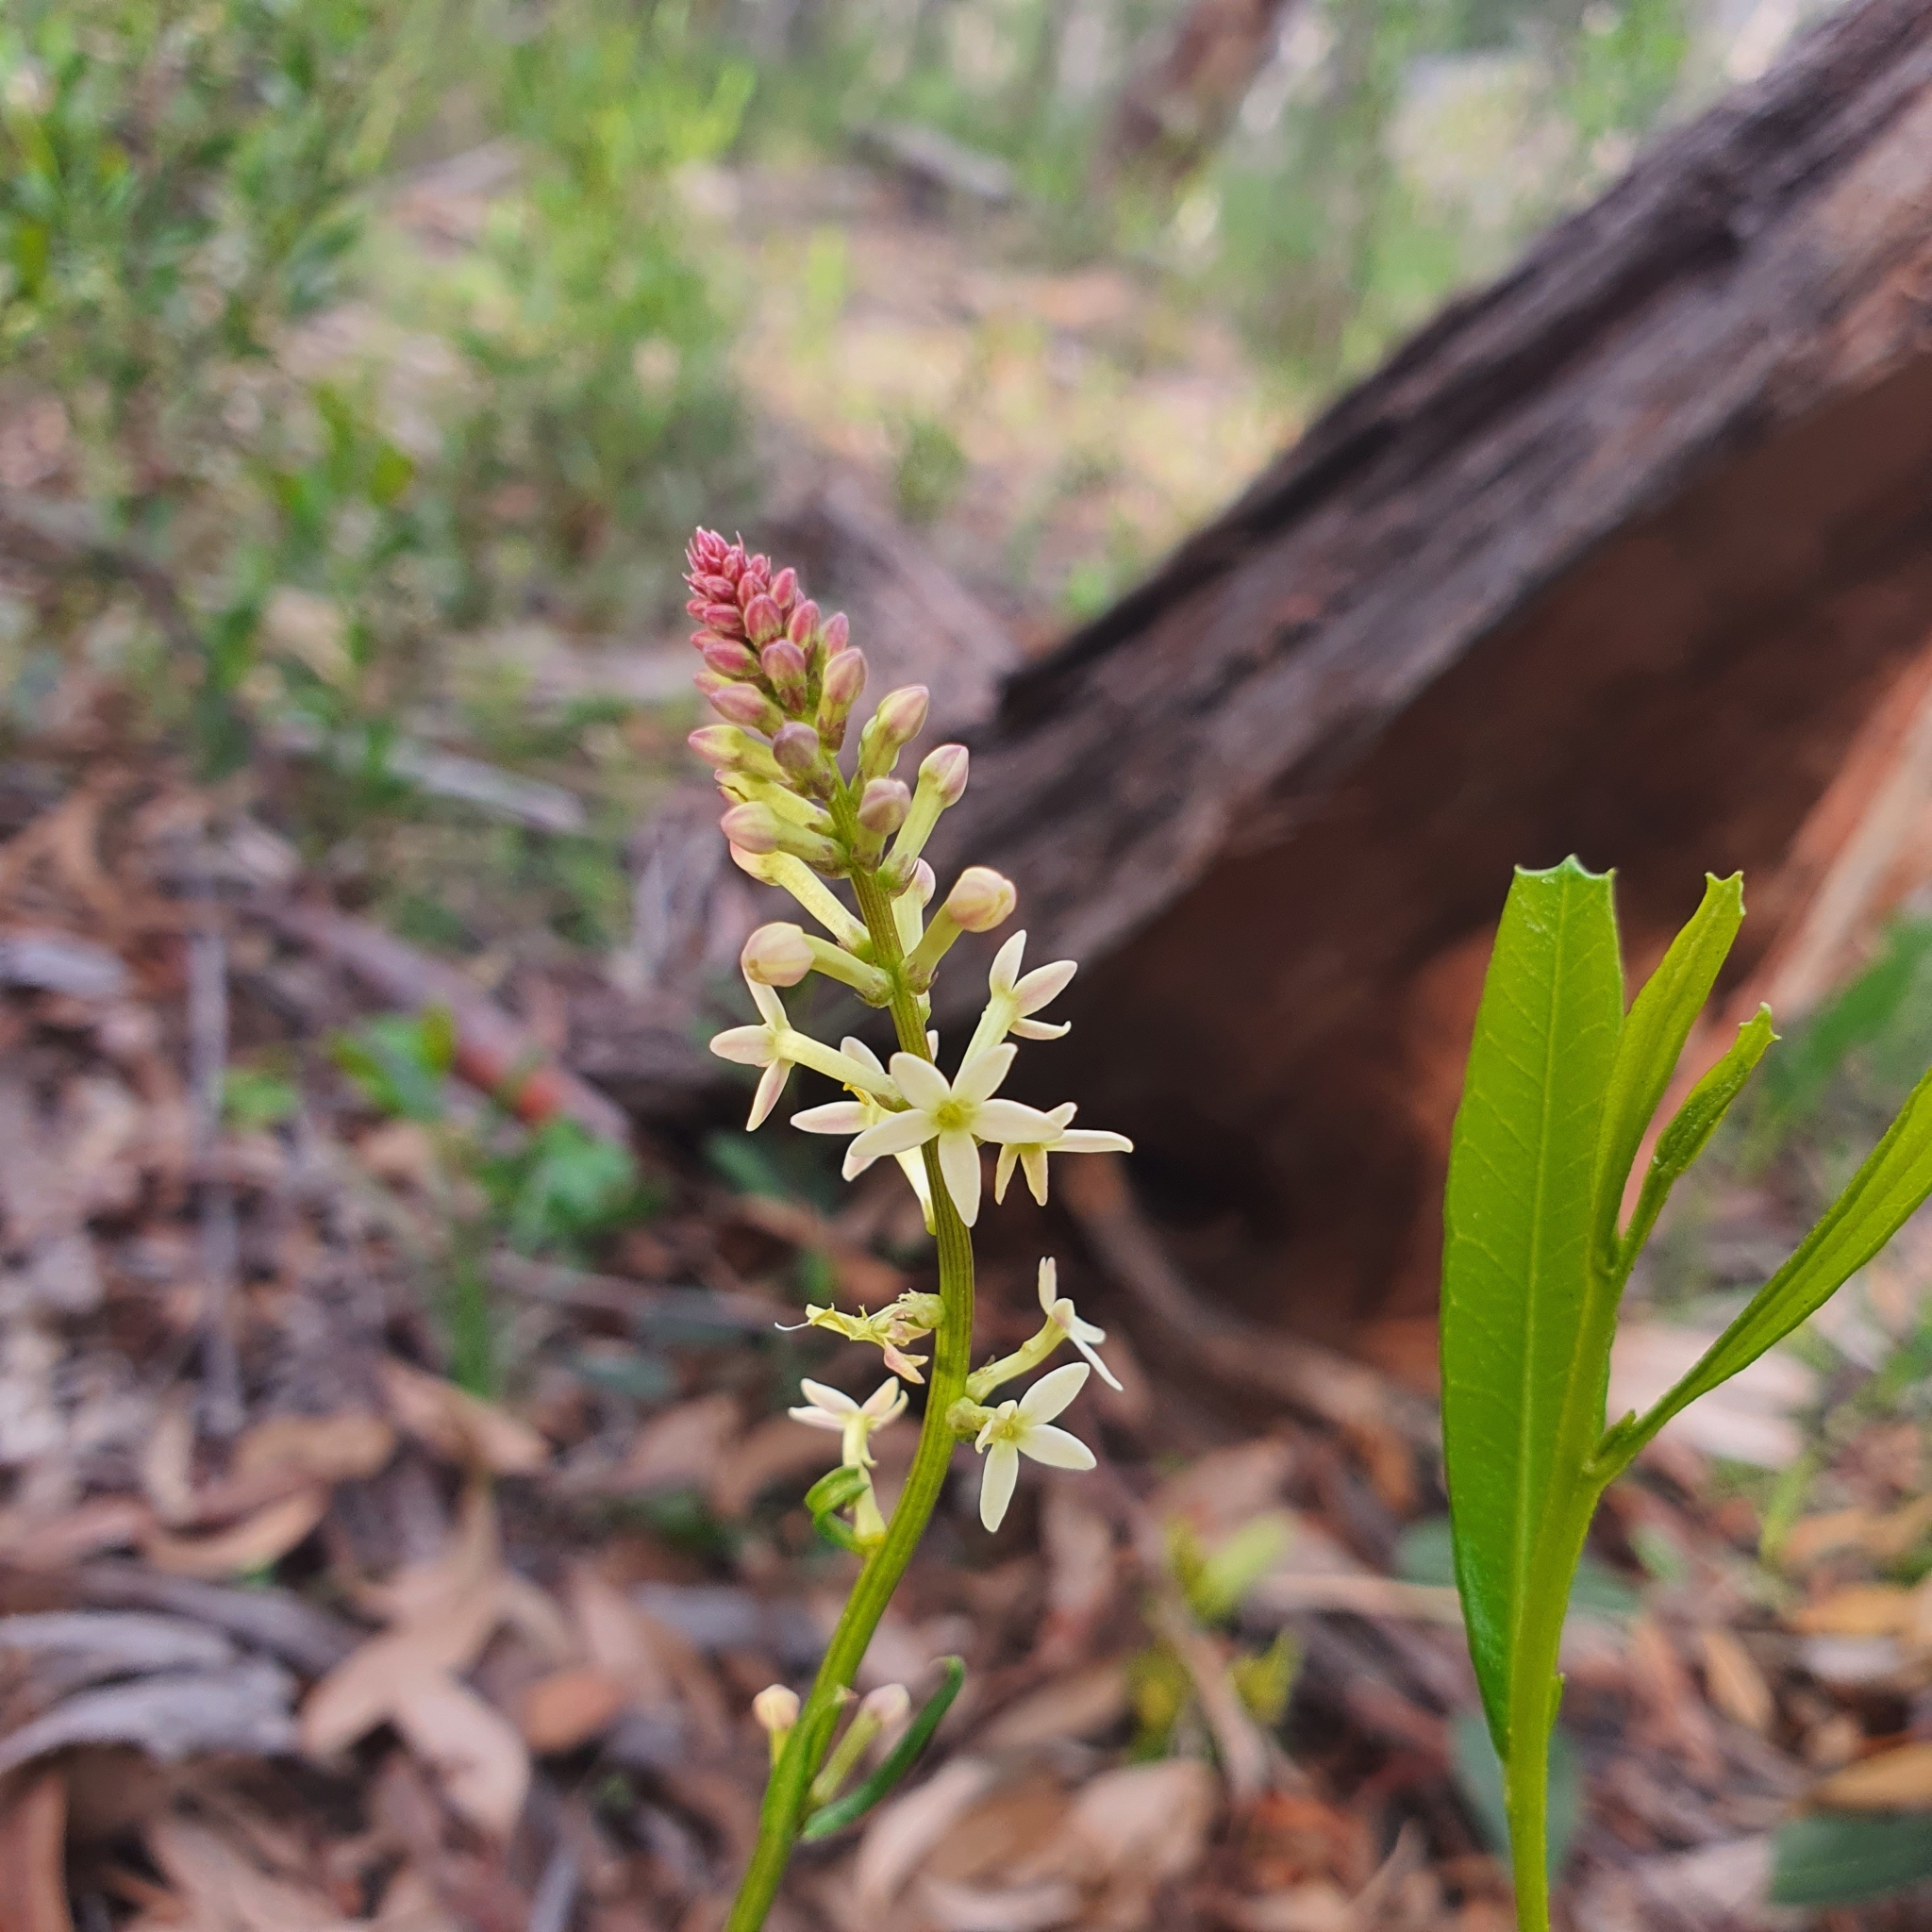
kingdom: Plantae
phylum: Tracheophyta
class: Magnoliopsida
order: Celastrales
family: Celastraceae
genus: Stackhousia
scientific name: Stackhousia monogyna
